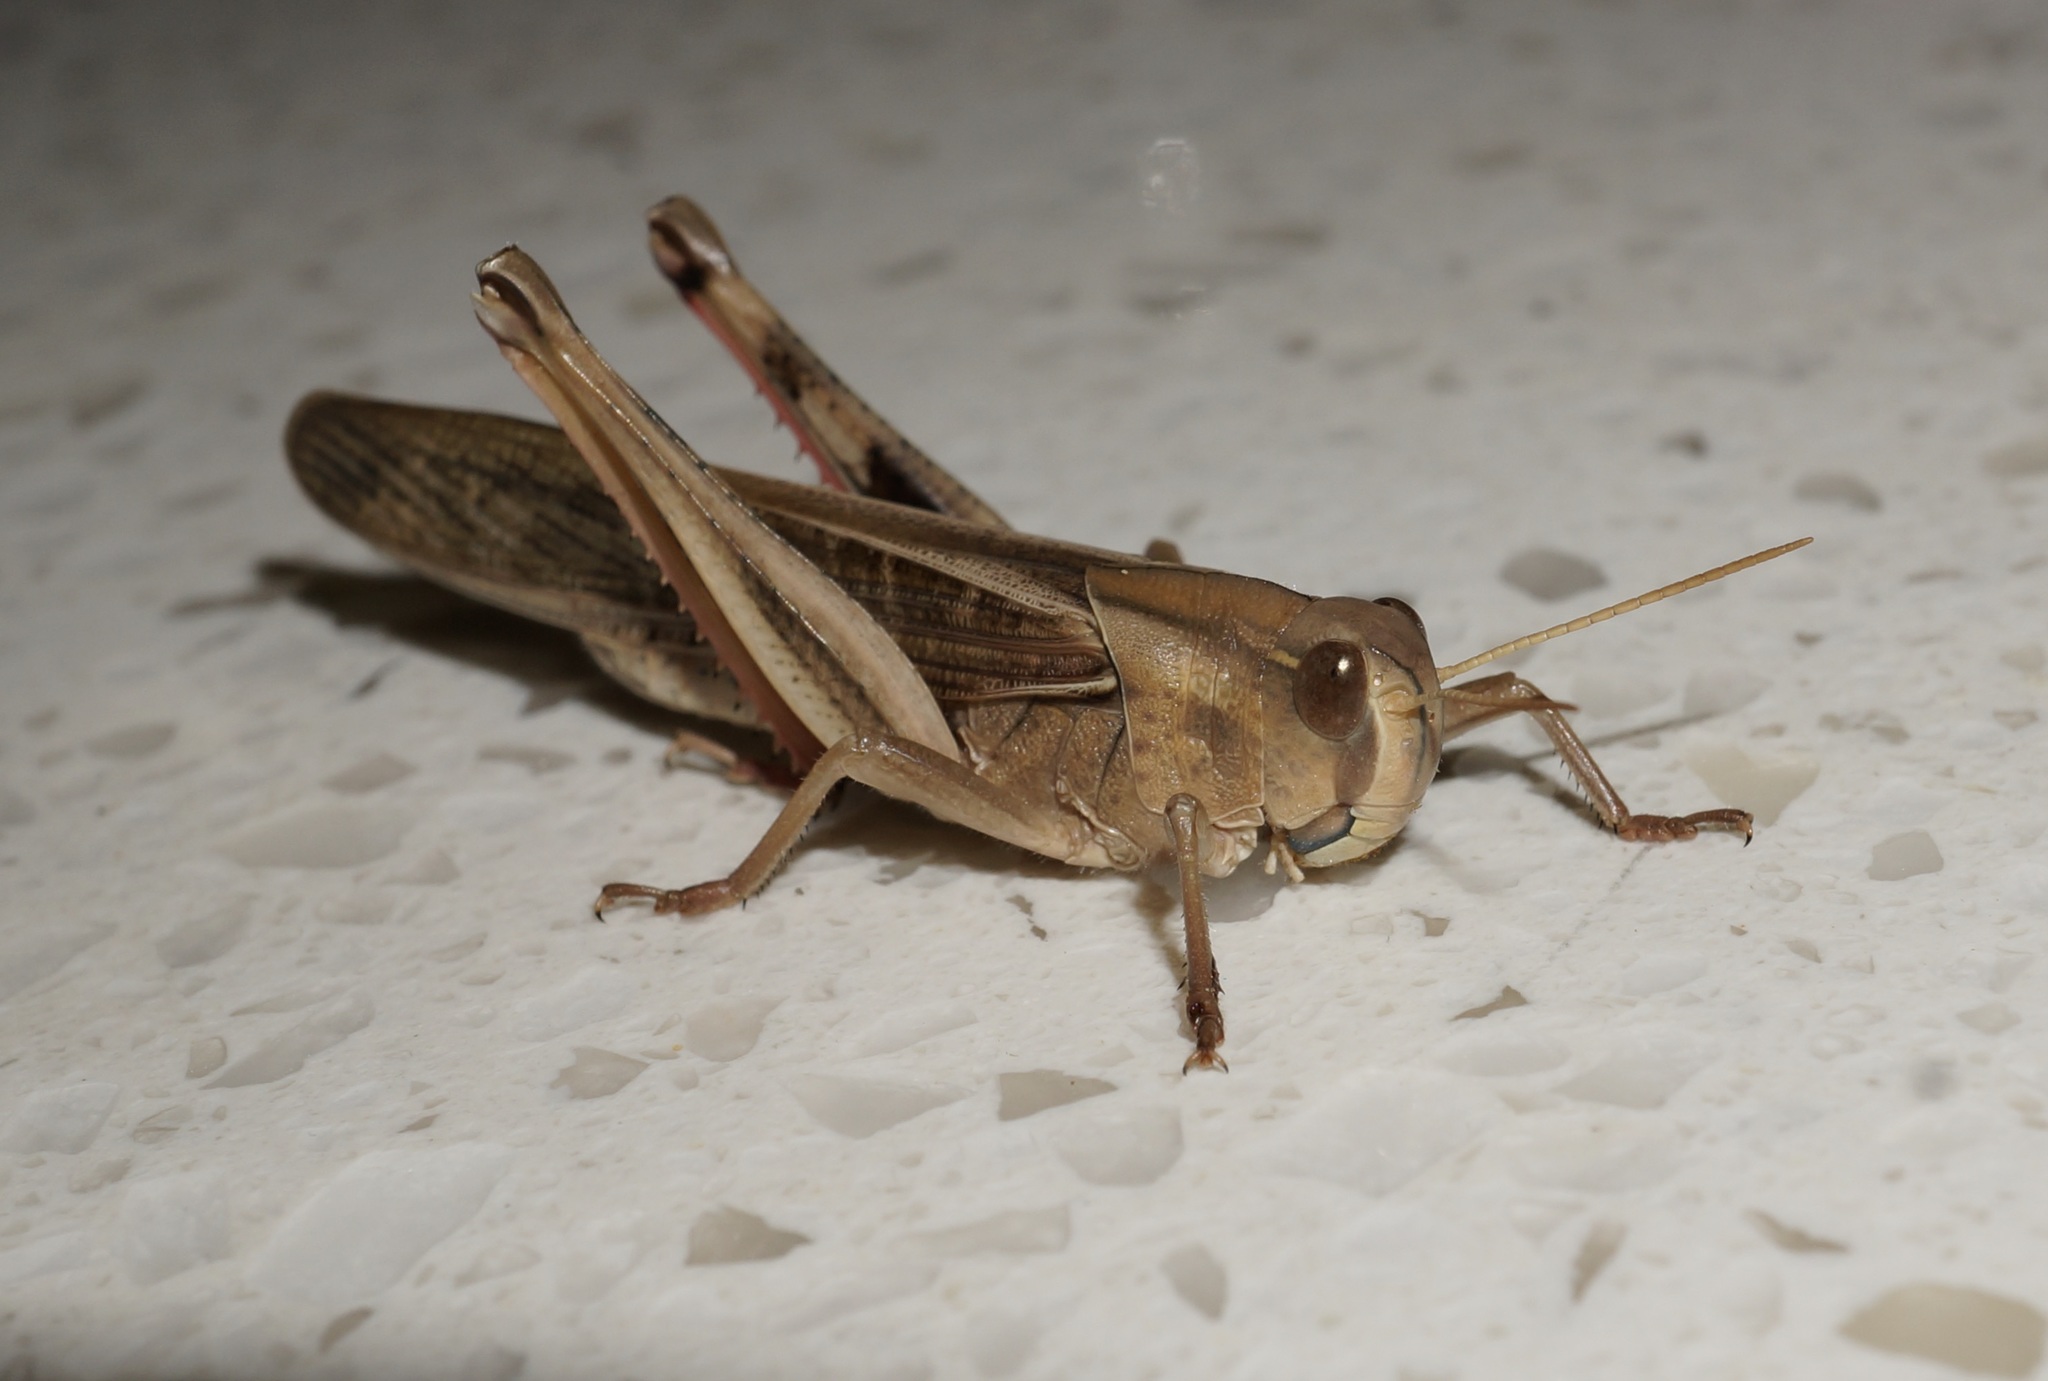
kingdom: Animalia
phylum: Arthropoda
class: Insecta
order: Orthoptera
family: Acrididae
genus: Locusta
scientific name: Locusta migratoria
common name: Migratory locust
